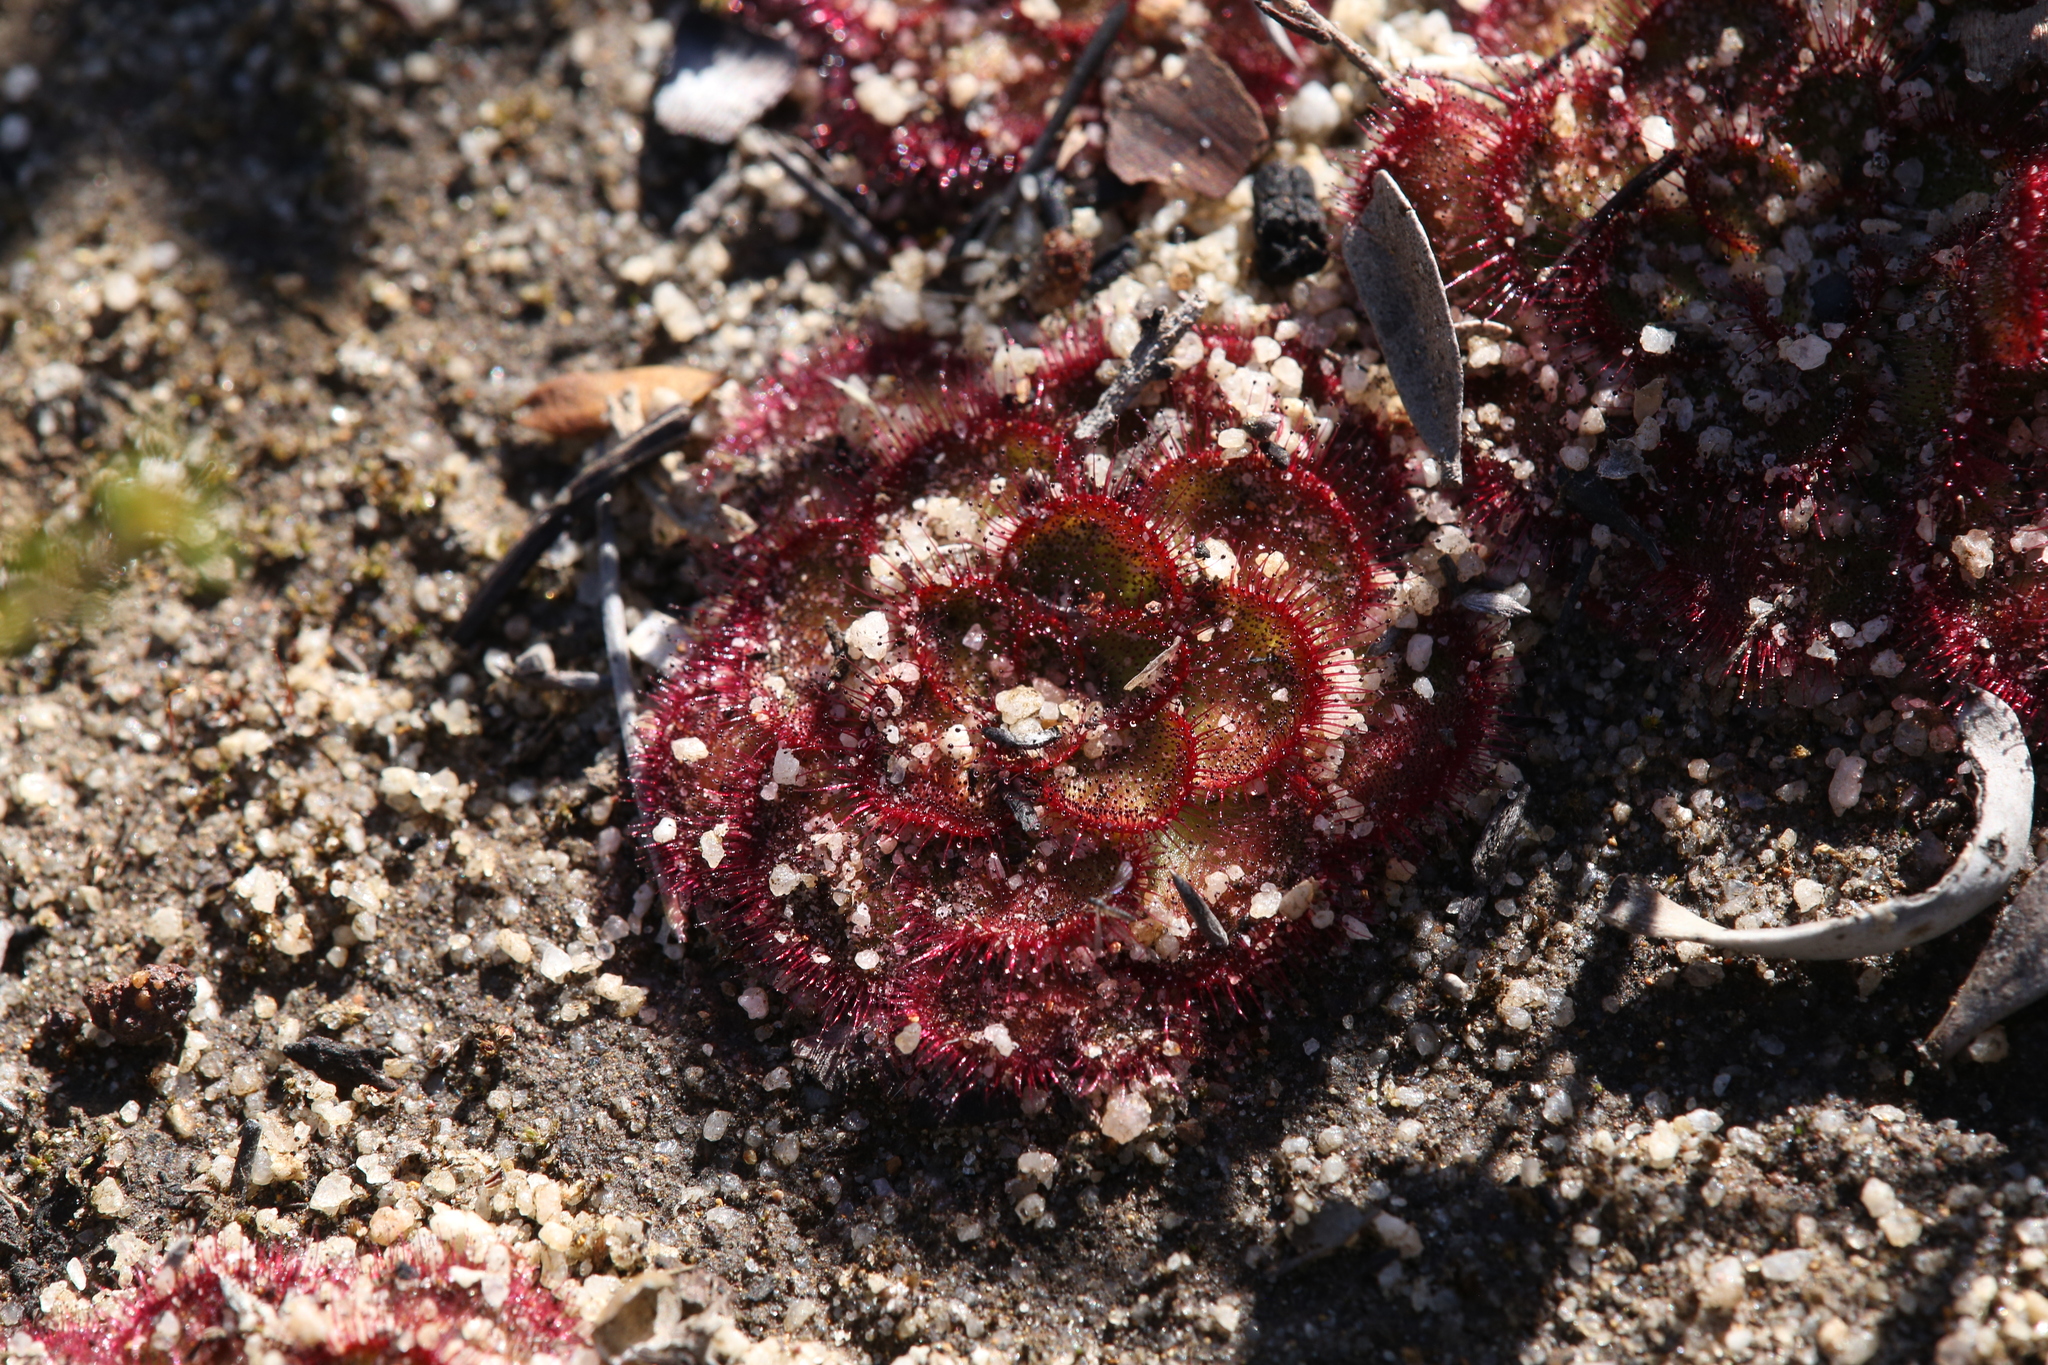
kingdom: Plantae
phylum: Tracheophyta
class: Magnoliopsida
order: Caryophyllales
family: Droseraceae
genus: Drosera
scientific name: Drosera zonaria
